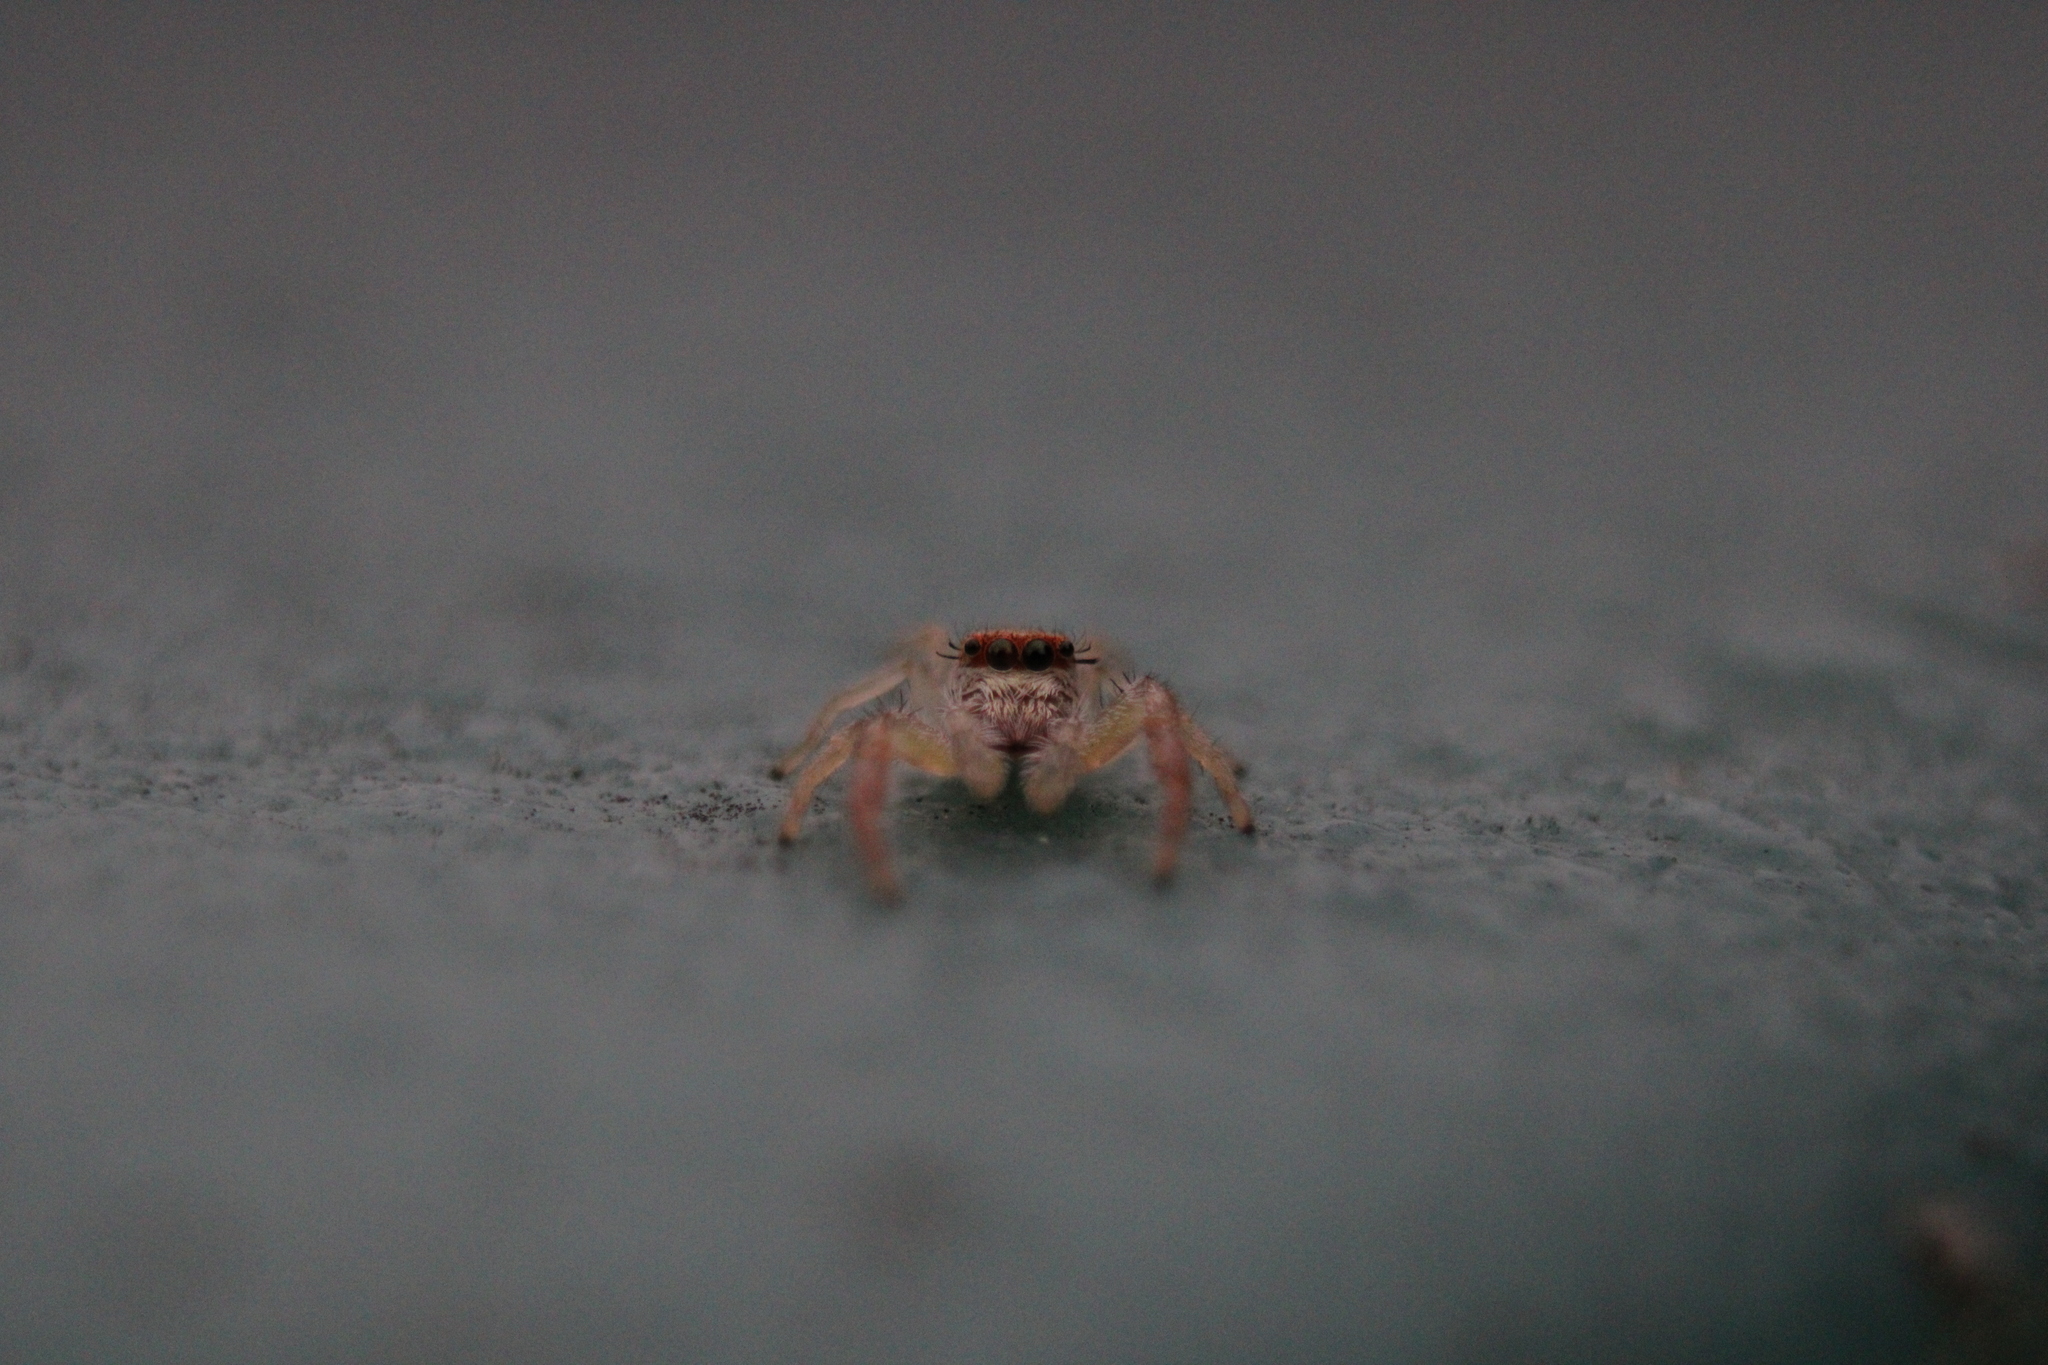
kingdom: Animalia
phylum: Arthropoda
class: Arachnida
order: Araneae
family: Salticidae
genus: Hentzia
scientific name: Hentzia palmarum
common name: Common hentz jumping spider
